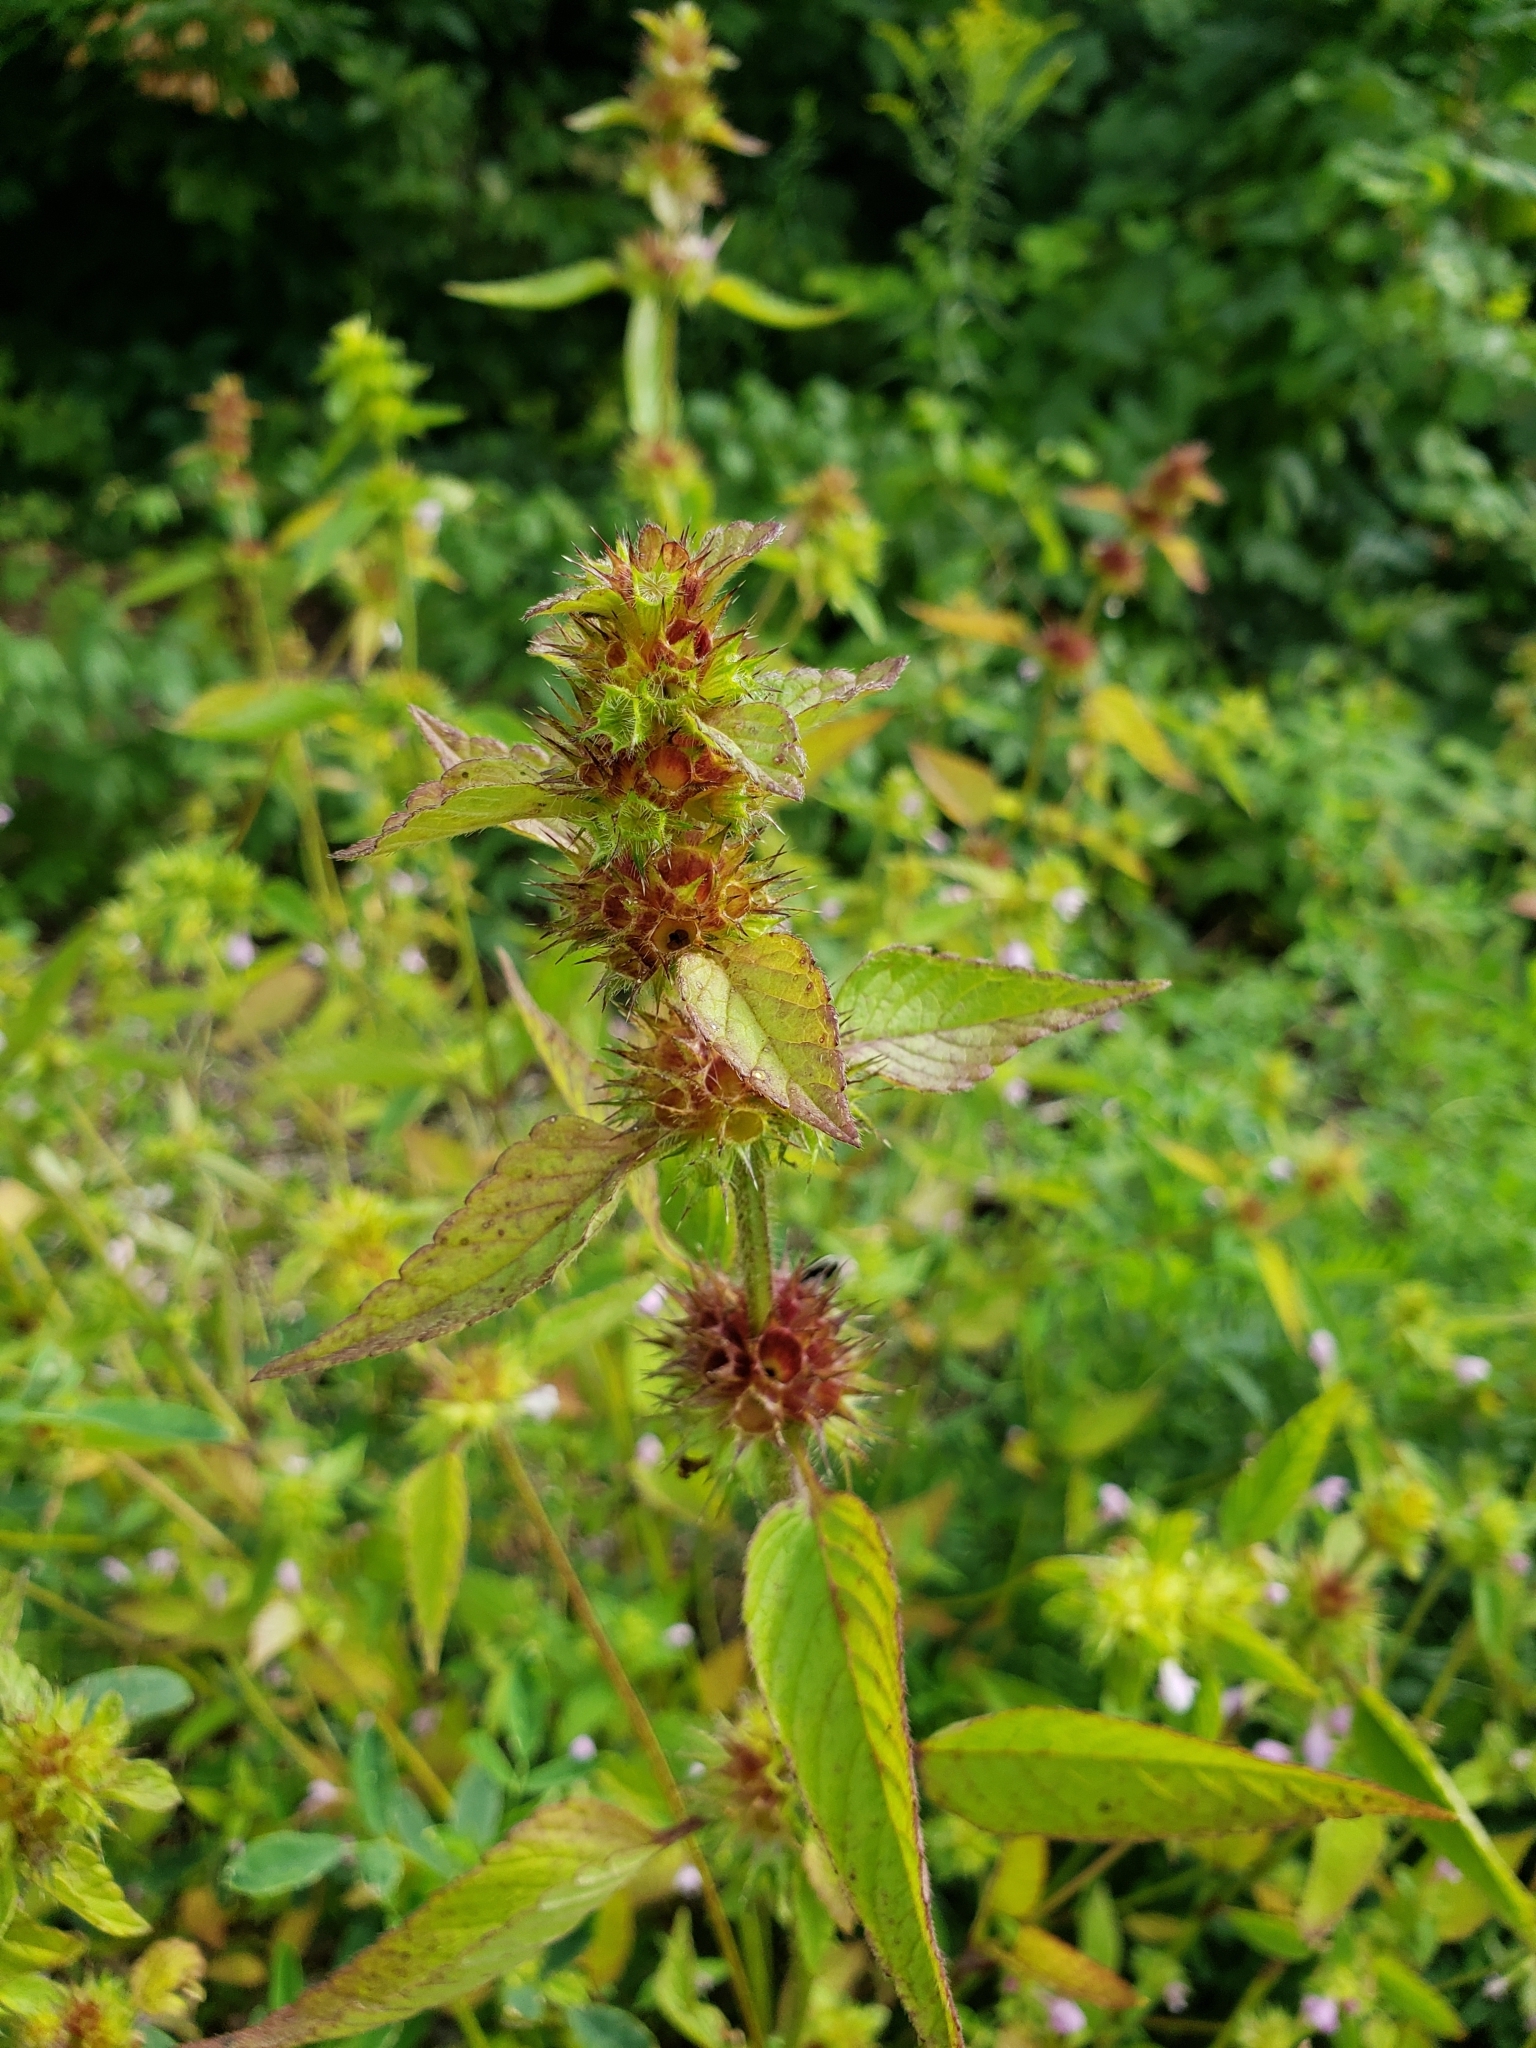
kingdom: Plantae
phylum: Tracheophyta
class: Magnoliopsida
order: Lamiales
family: Lamiaceae
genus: Galeopsis
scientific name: Galeopsis tetrahit
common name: Common hemp-nettle
